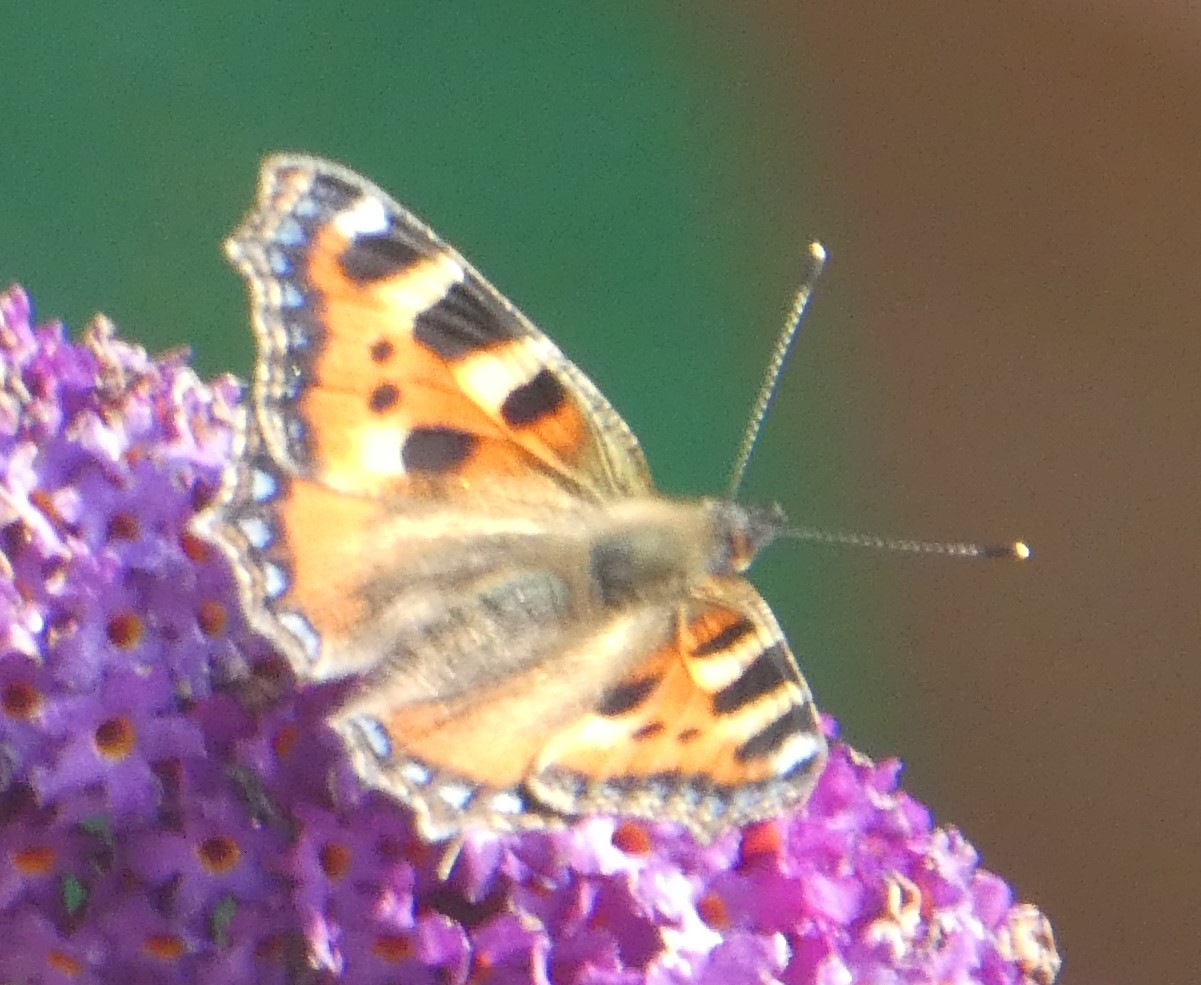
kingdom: Animalia
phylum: Arthropoda
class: Insecta
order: Lepidoptera
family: Nymphalidae
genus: Aglais
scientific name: Aglais urticae
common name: Small tortoiseshell
